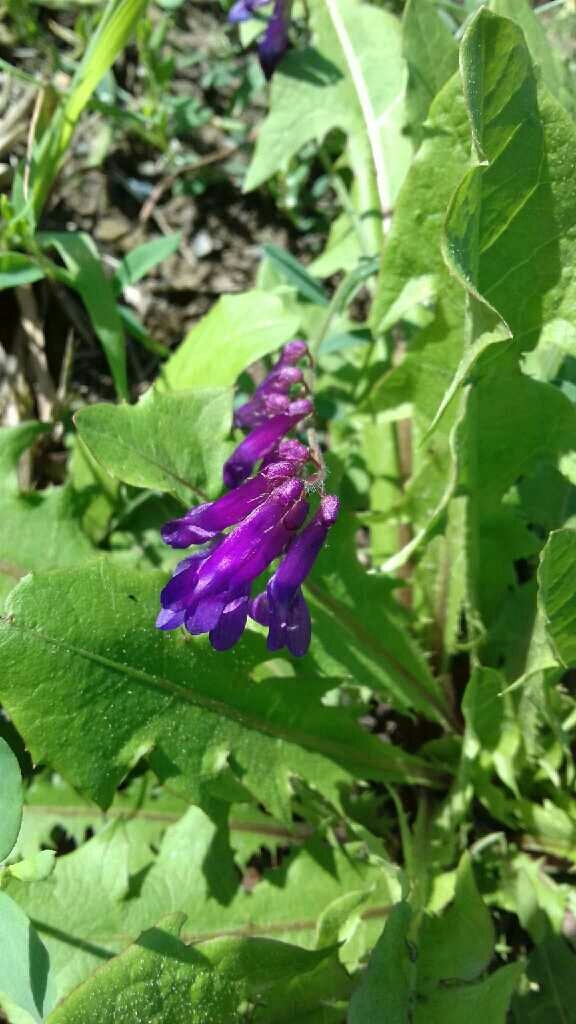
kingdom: Plantae
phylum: Tracheophyta
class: Magnoliopsida
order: Fabales
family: Fabaceae
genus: Vicia
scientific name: Vicia villosa
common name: Fodder vetch
